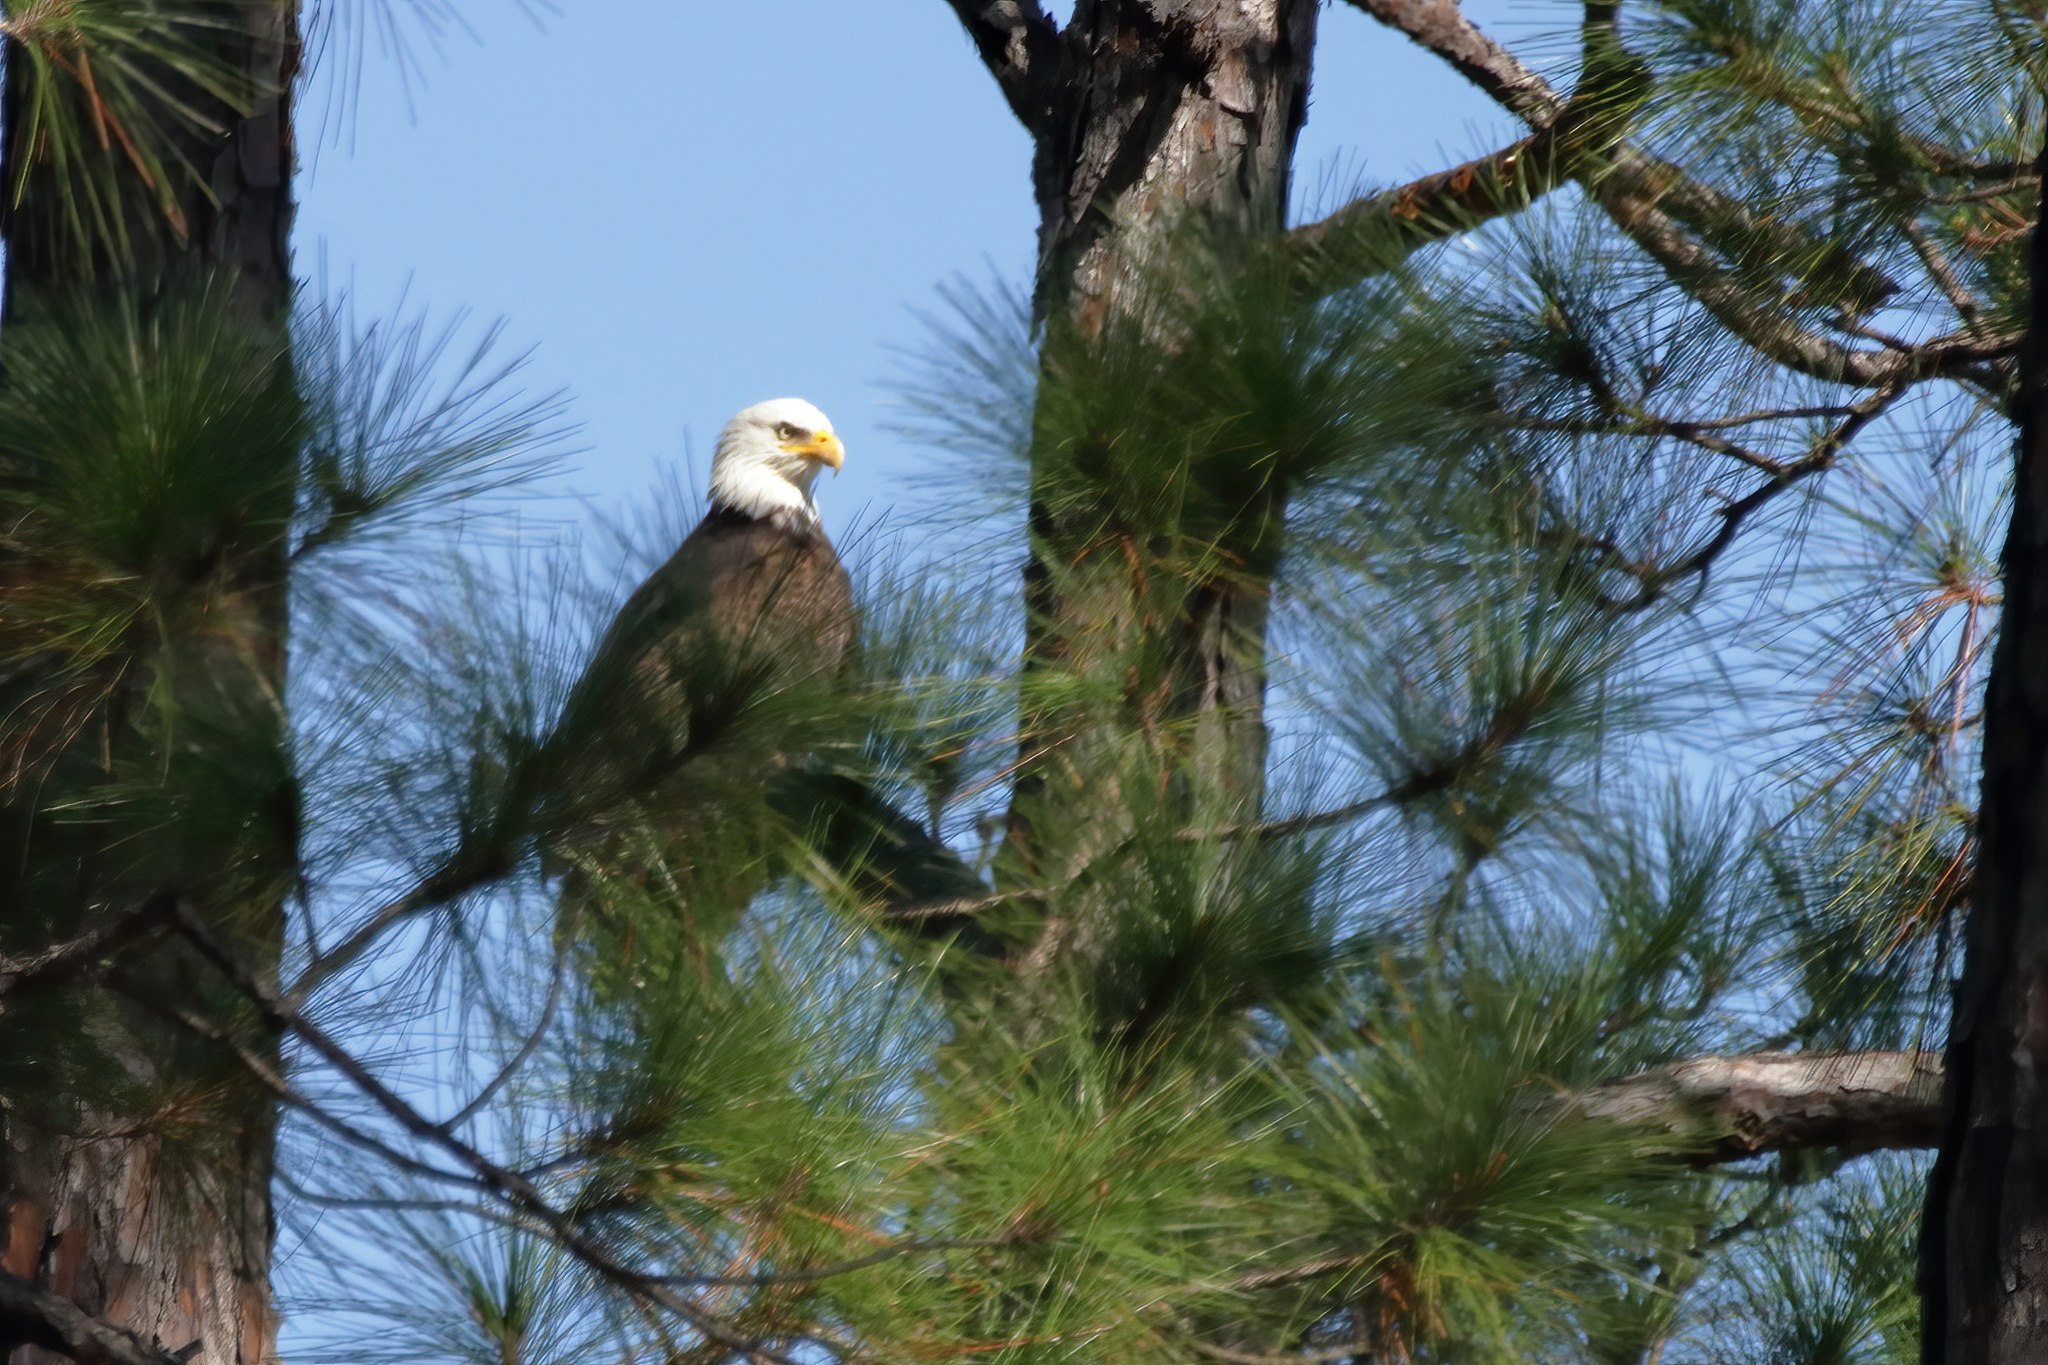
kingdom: Animalia
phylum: Chordata
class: Aves
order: Accipitriformes
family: Accipitridae
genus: Haliaeetus
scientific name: Haliaeetus leucocephalus
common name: Bald eagle
